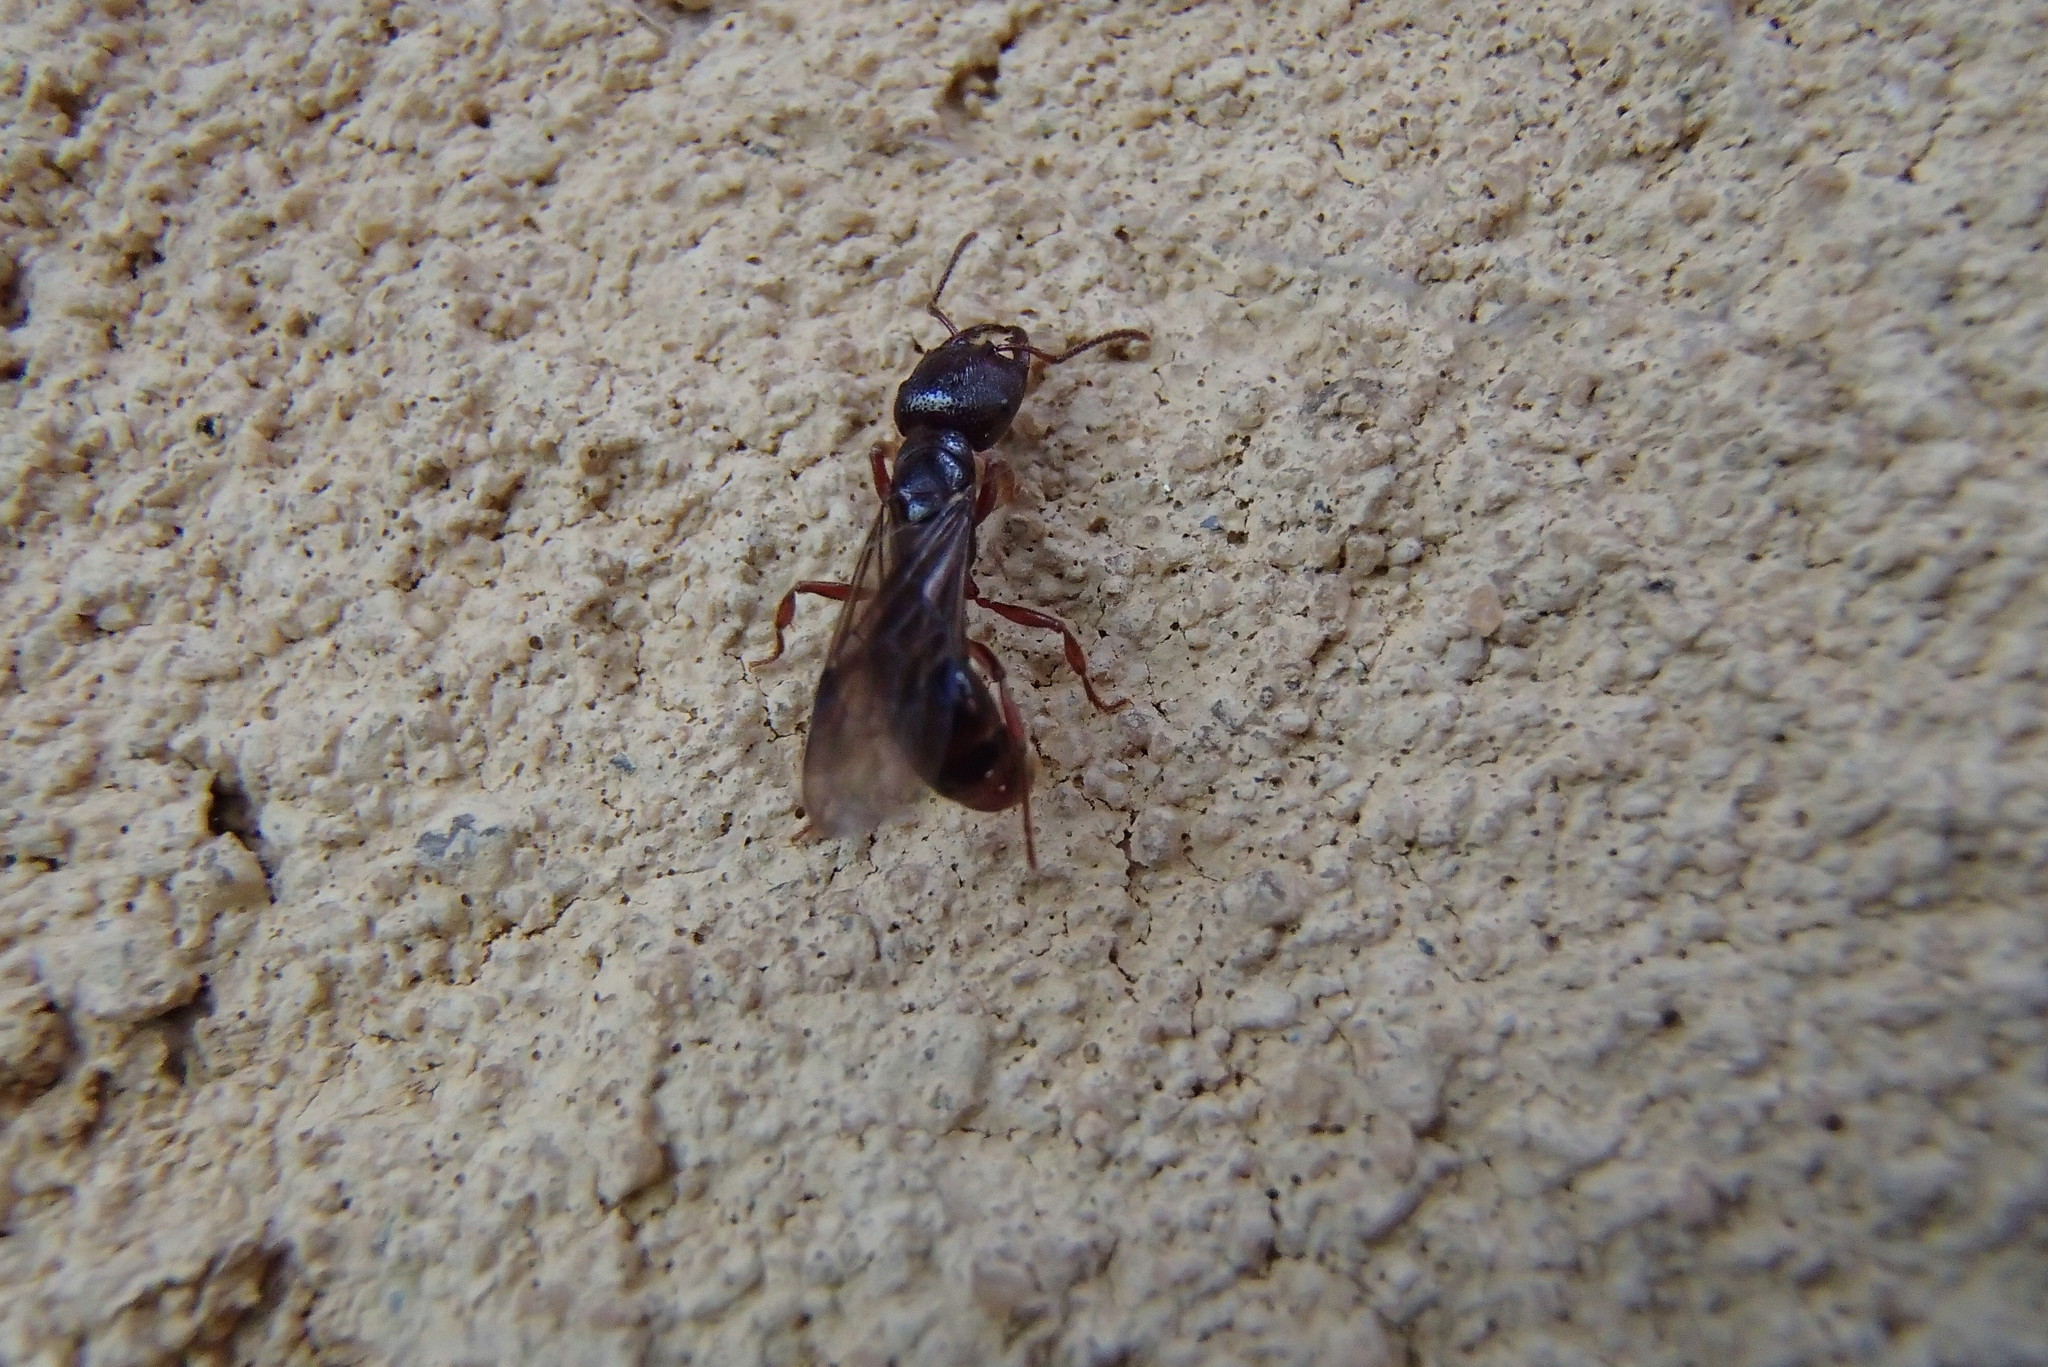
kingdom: Animalia
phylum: Arthropoda
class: Insecta
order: Hymenoptera
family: Formicidae
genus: Amblyopone
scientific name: Amblyopone australis
